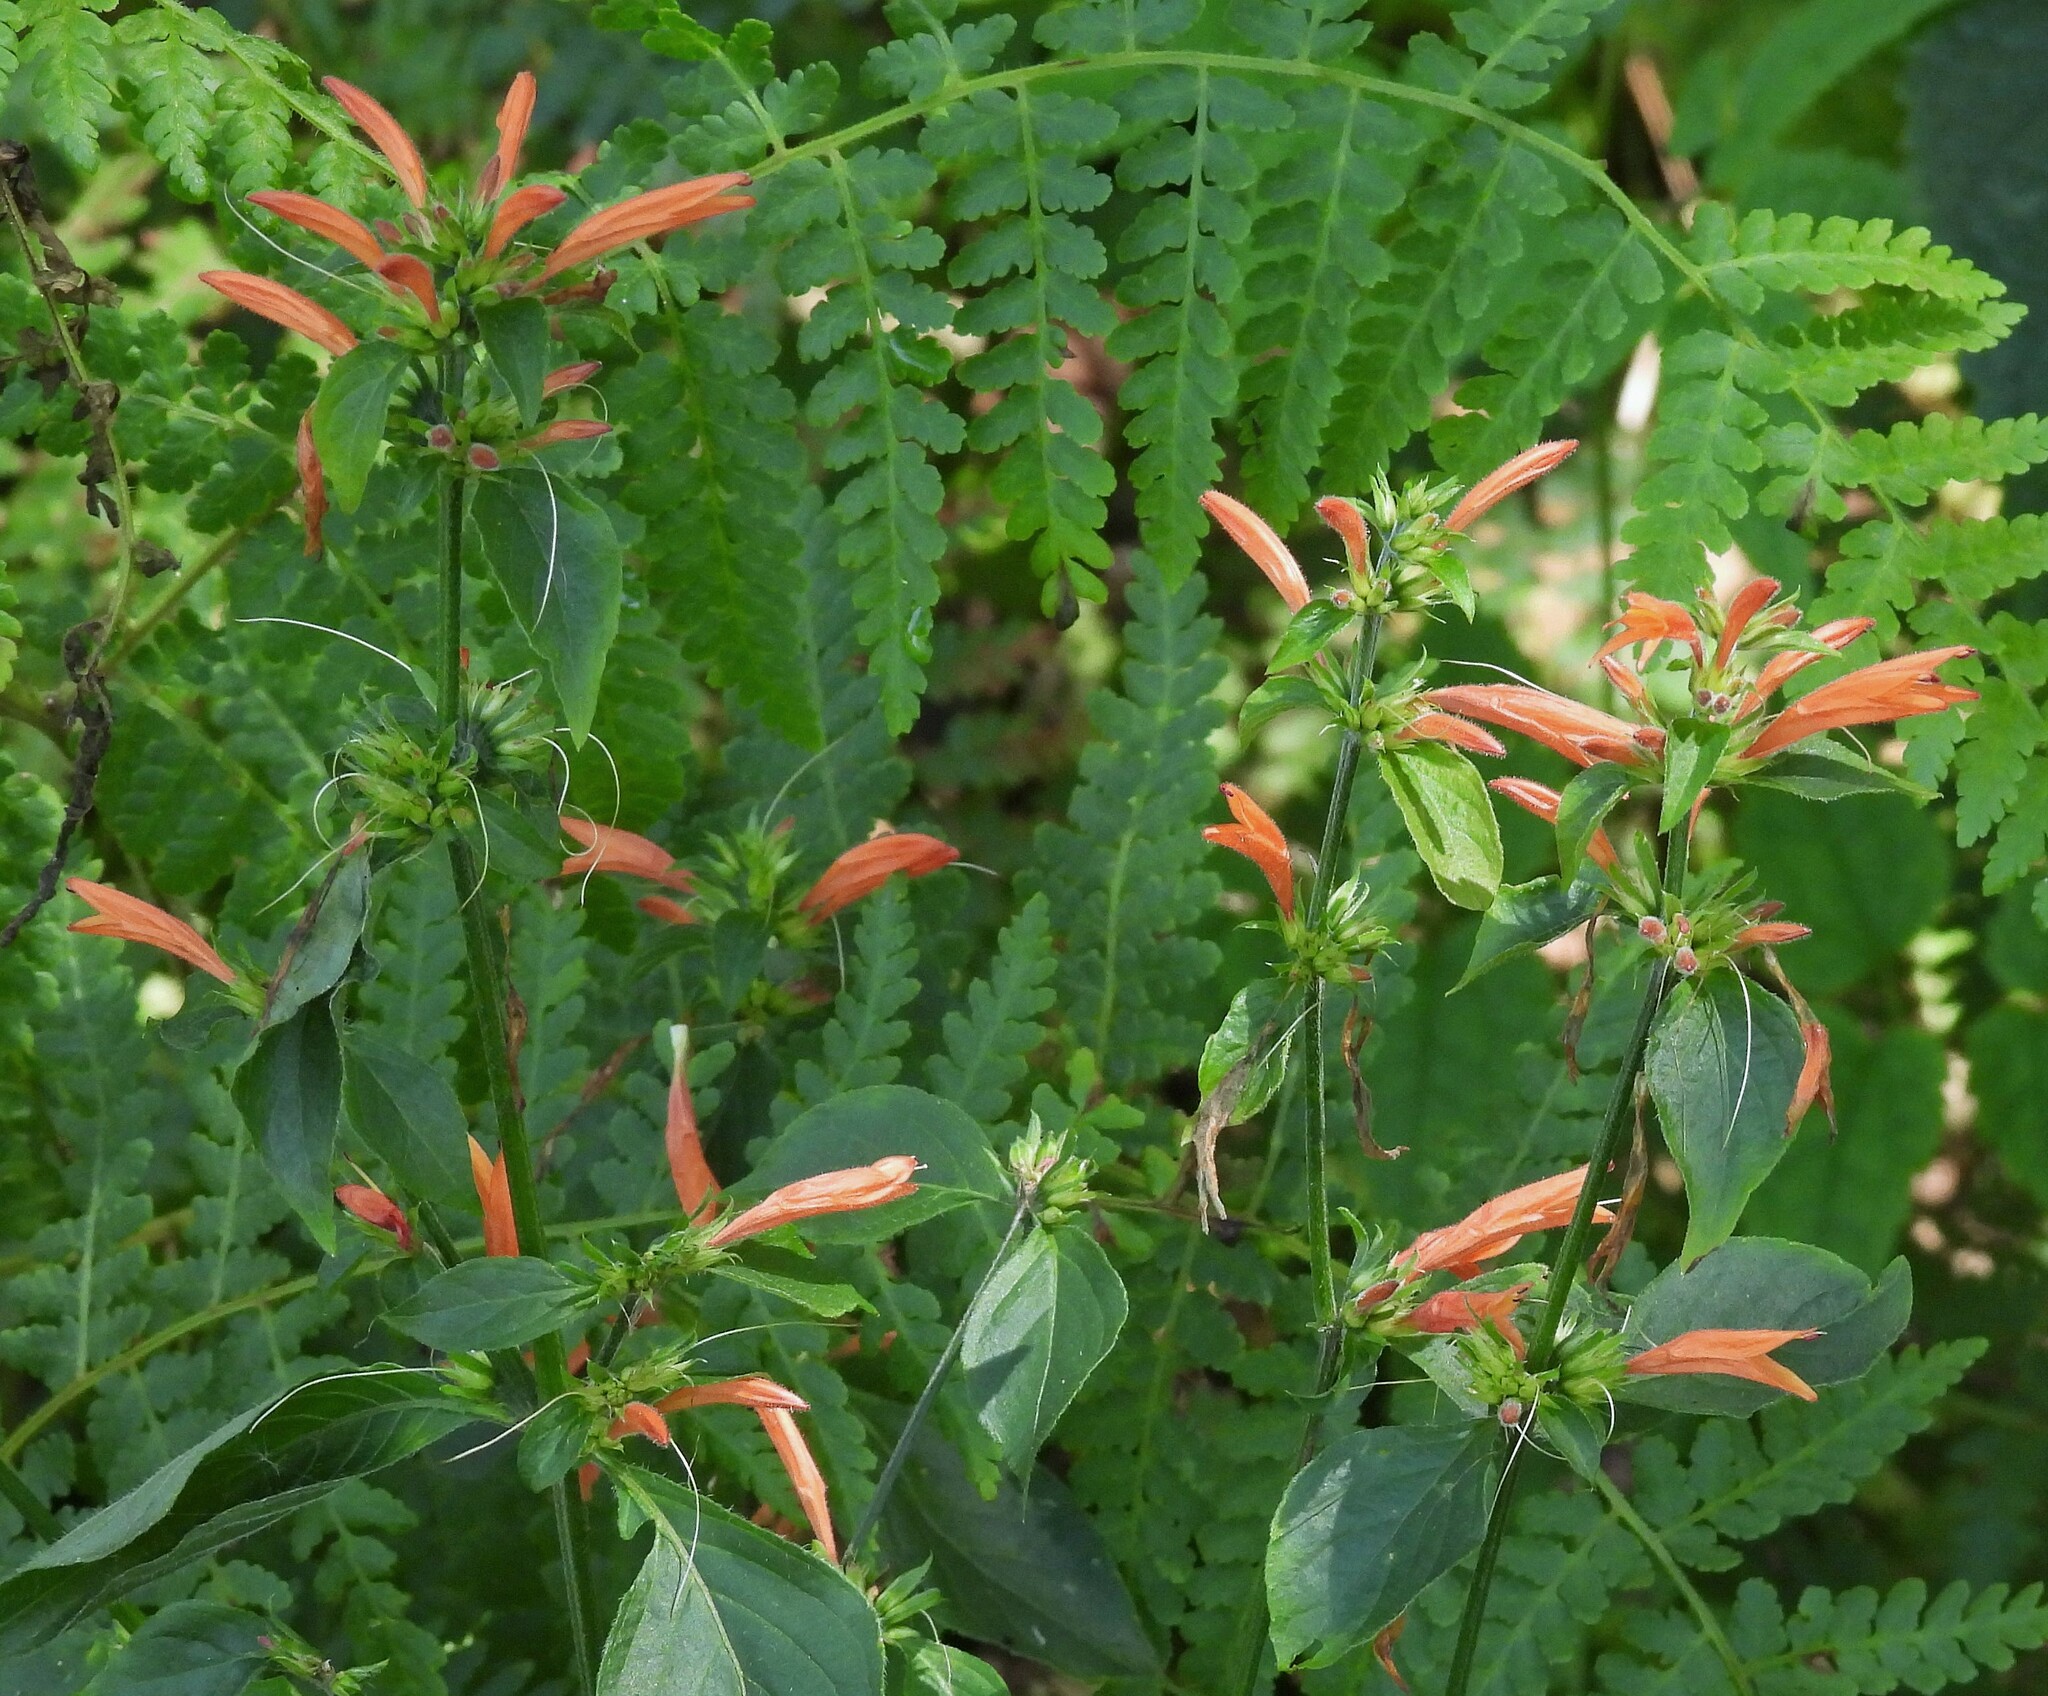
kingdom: Plantae
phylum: Tracheophyta
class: Magnoliopsida
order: Lamiales
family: Acanthaceae
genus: Dicliptera
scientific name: Dicliptera cabrerae
